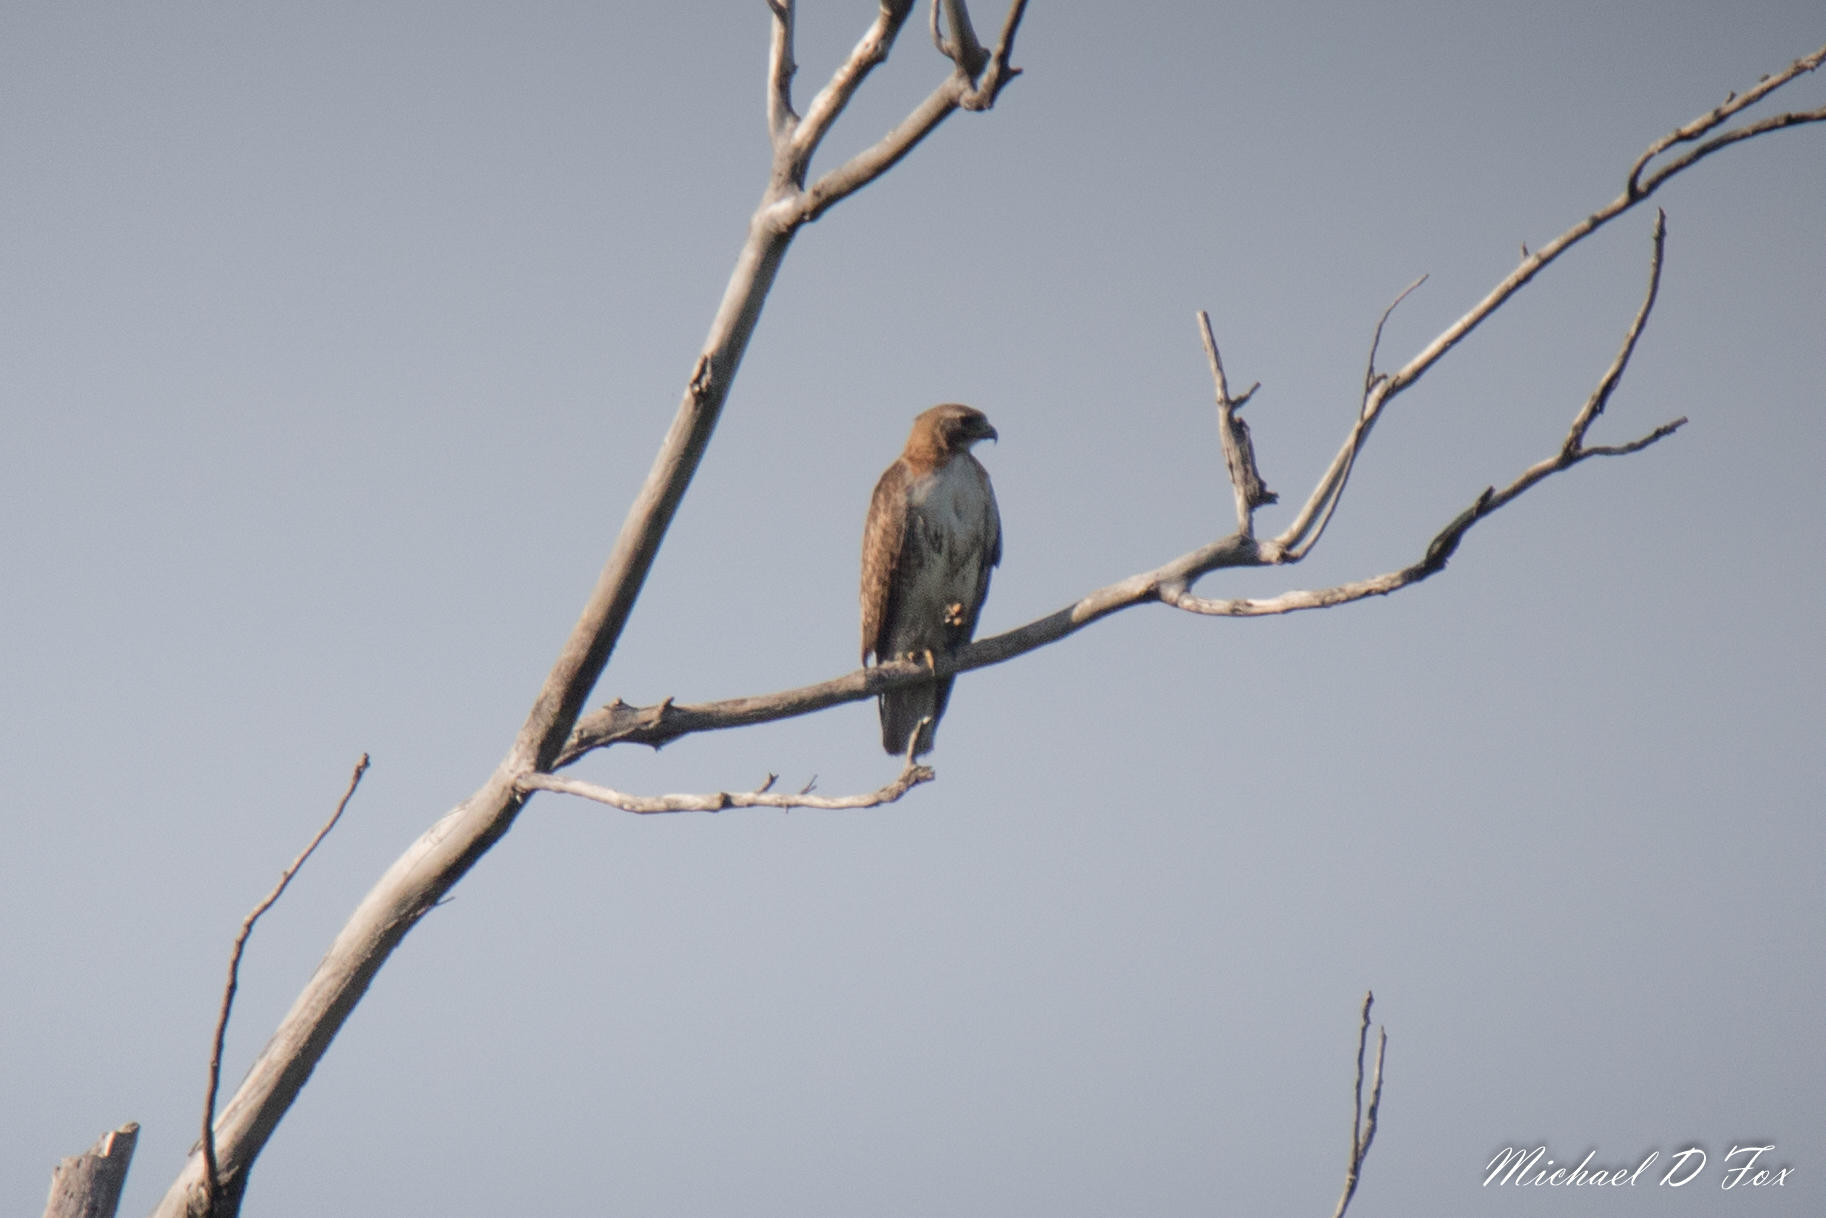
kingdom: Animalia
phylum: Chordata
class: Aves
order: Accipitriformes
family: Accipitridae
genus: Buteo
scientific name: Buteo jamaicensis
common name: Red-tailed hawk
